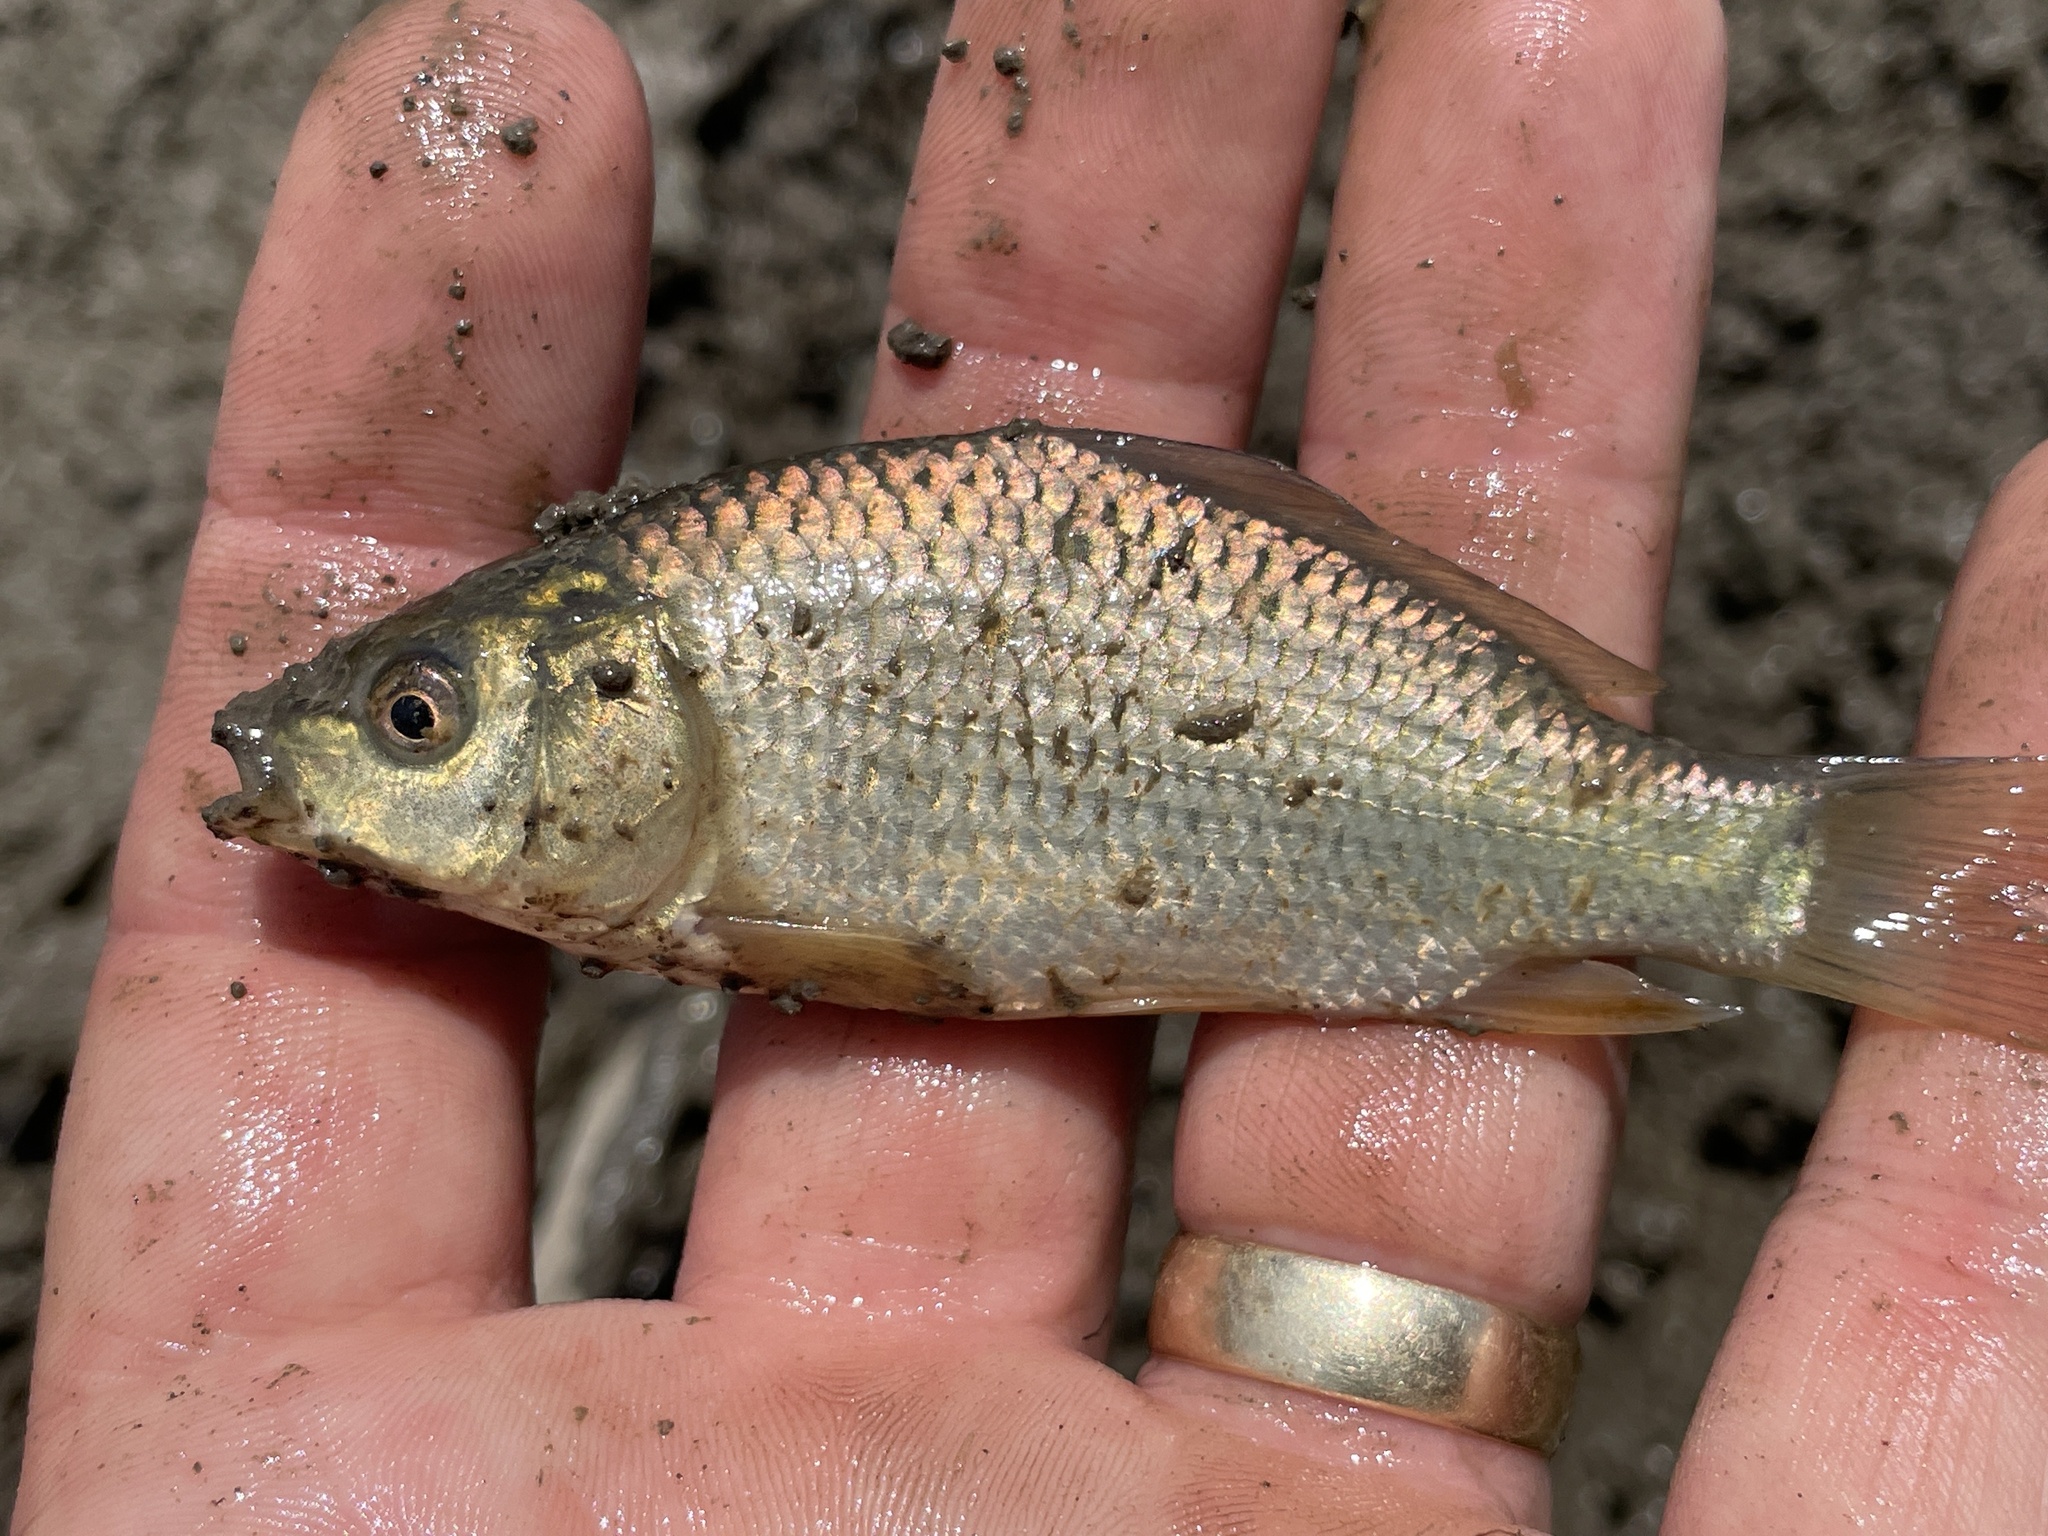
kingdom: Animalia
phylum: Chordata
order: Cypriniformes
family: Cyprinidae
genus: Cyprinus
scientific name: Cyprinus carpio
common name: Common carp
